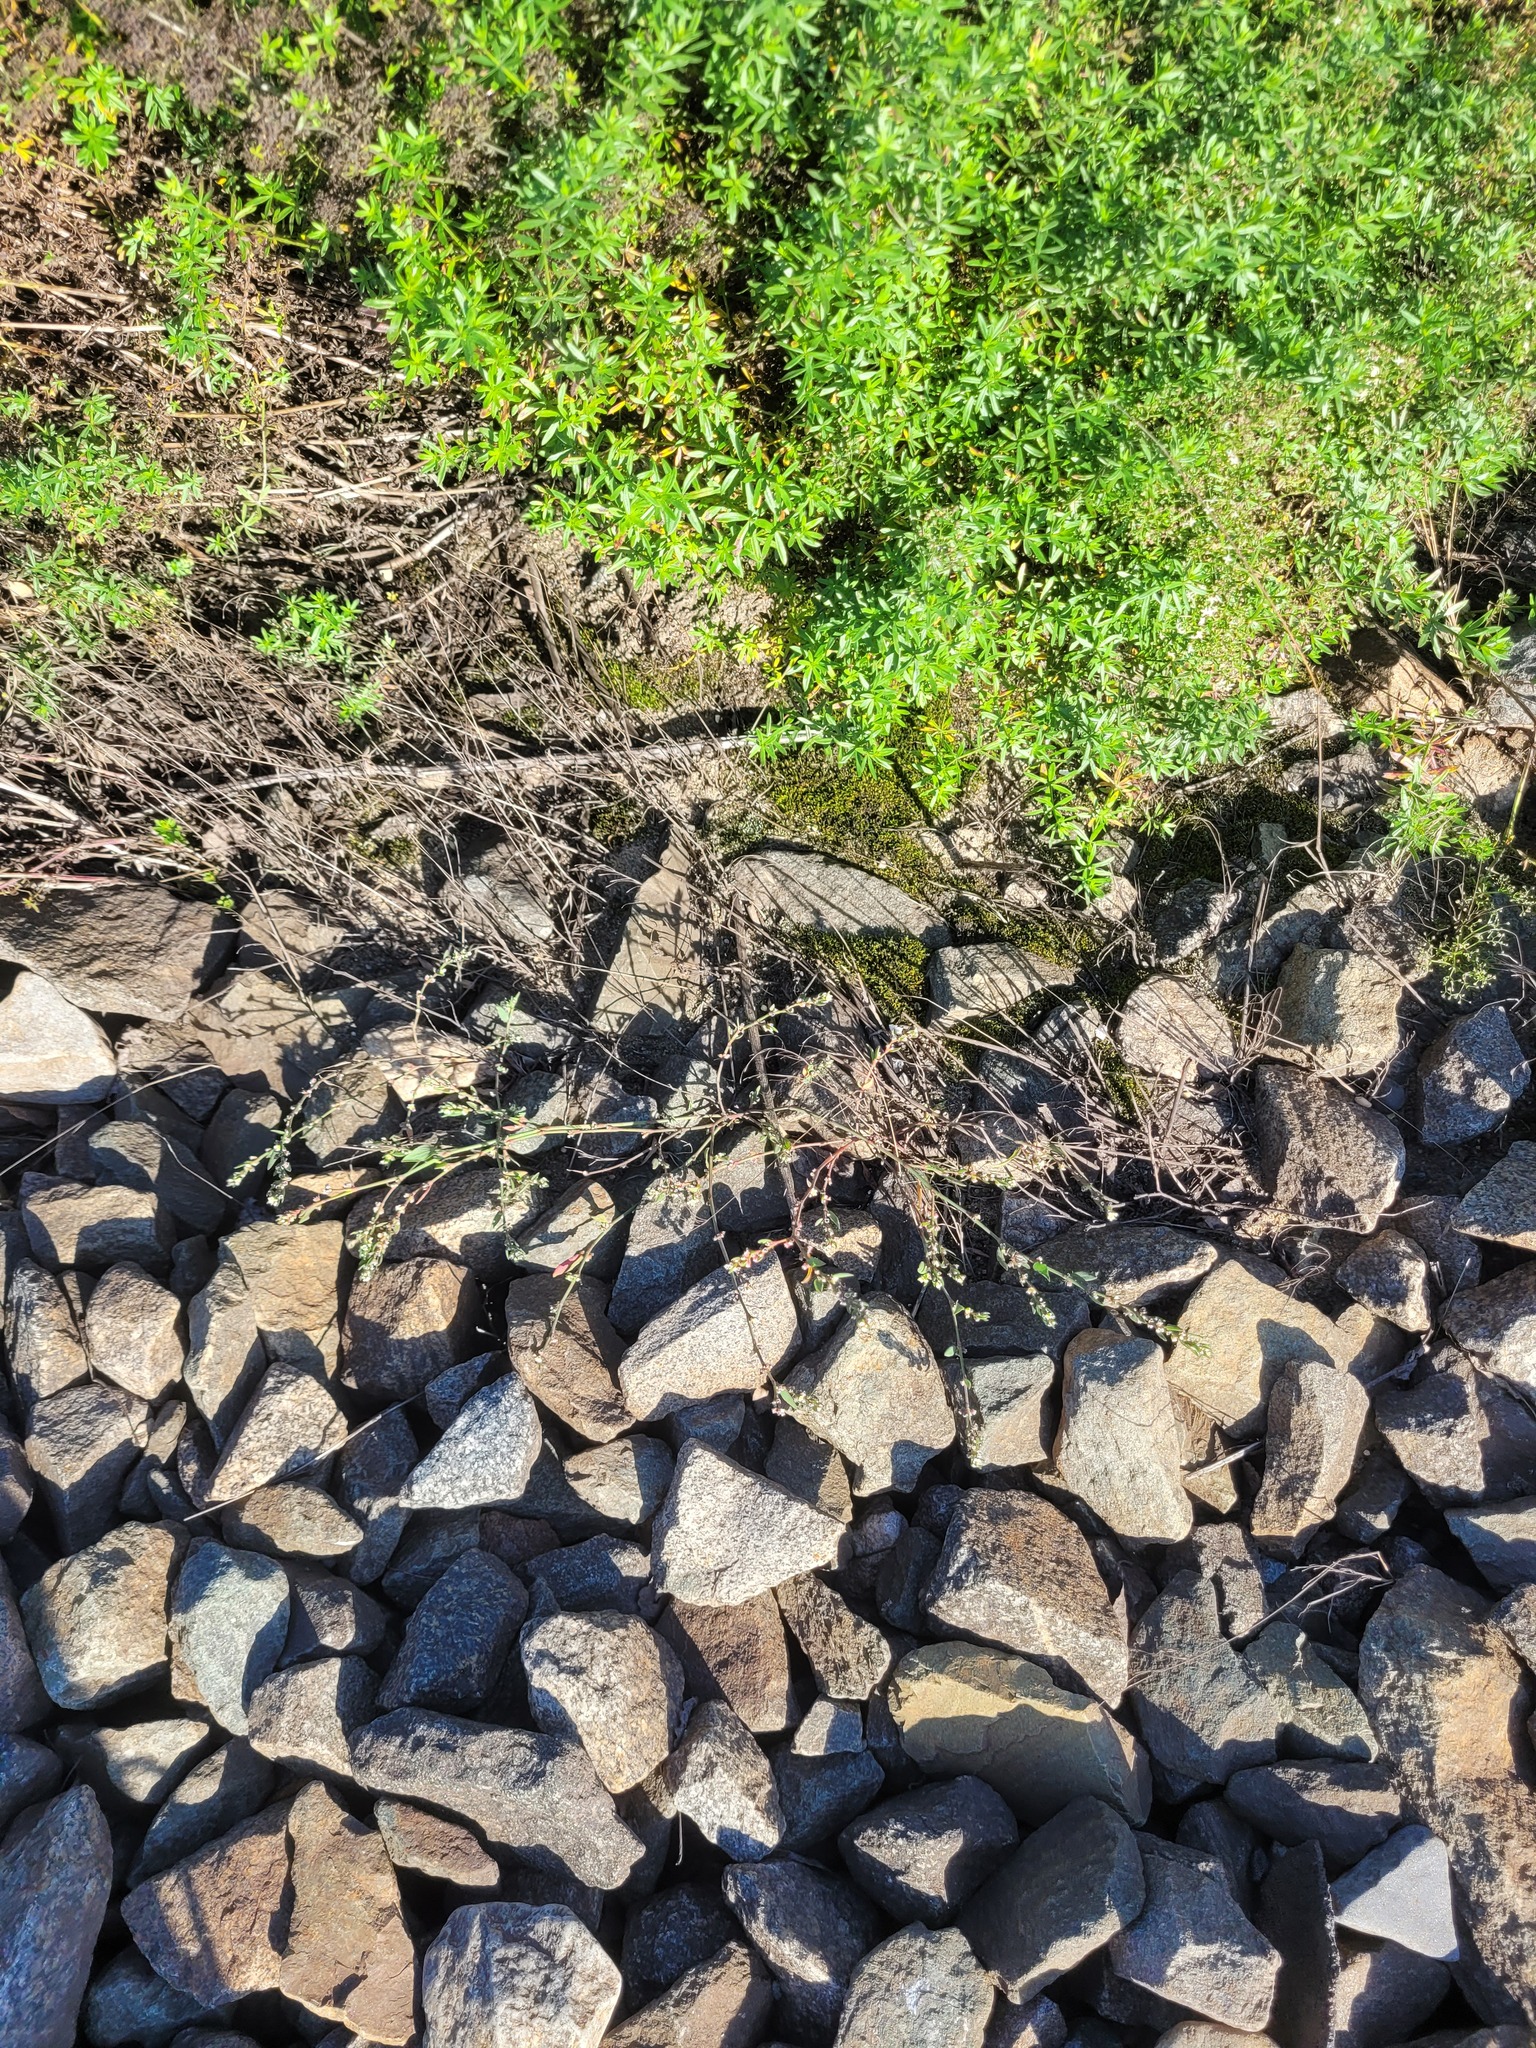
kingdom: Plantae
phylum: Tracheophyta
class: Magnoliopsida
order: Caryophyllales
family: Polygonaceae
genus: Polygonum
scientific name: Polygonum
